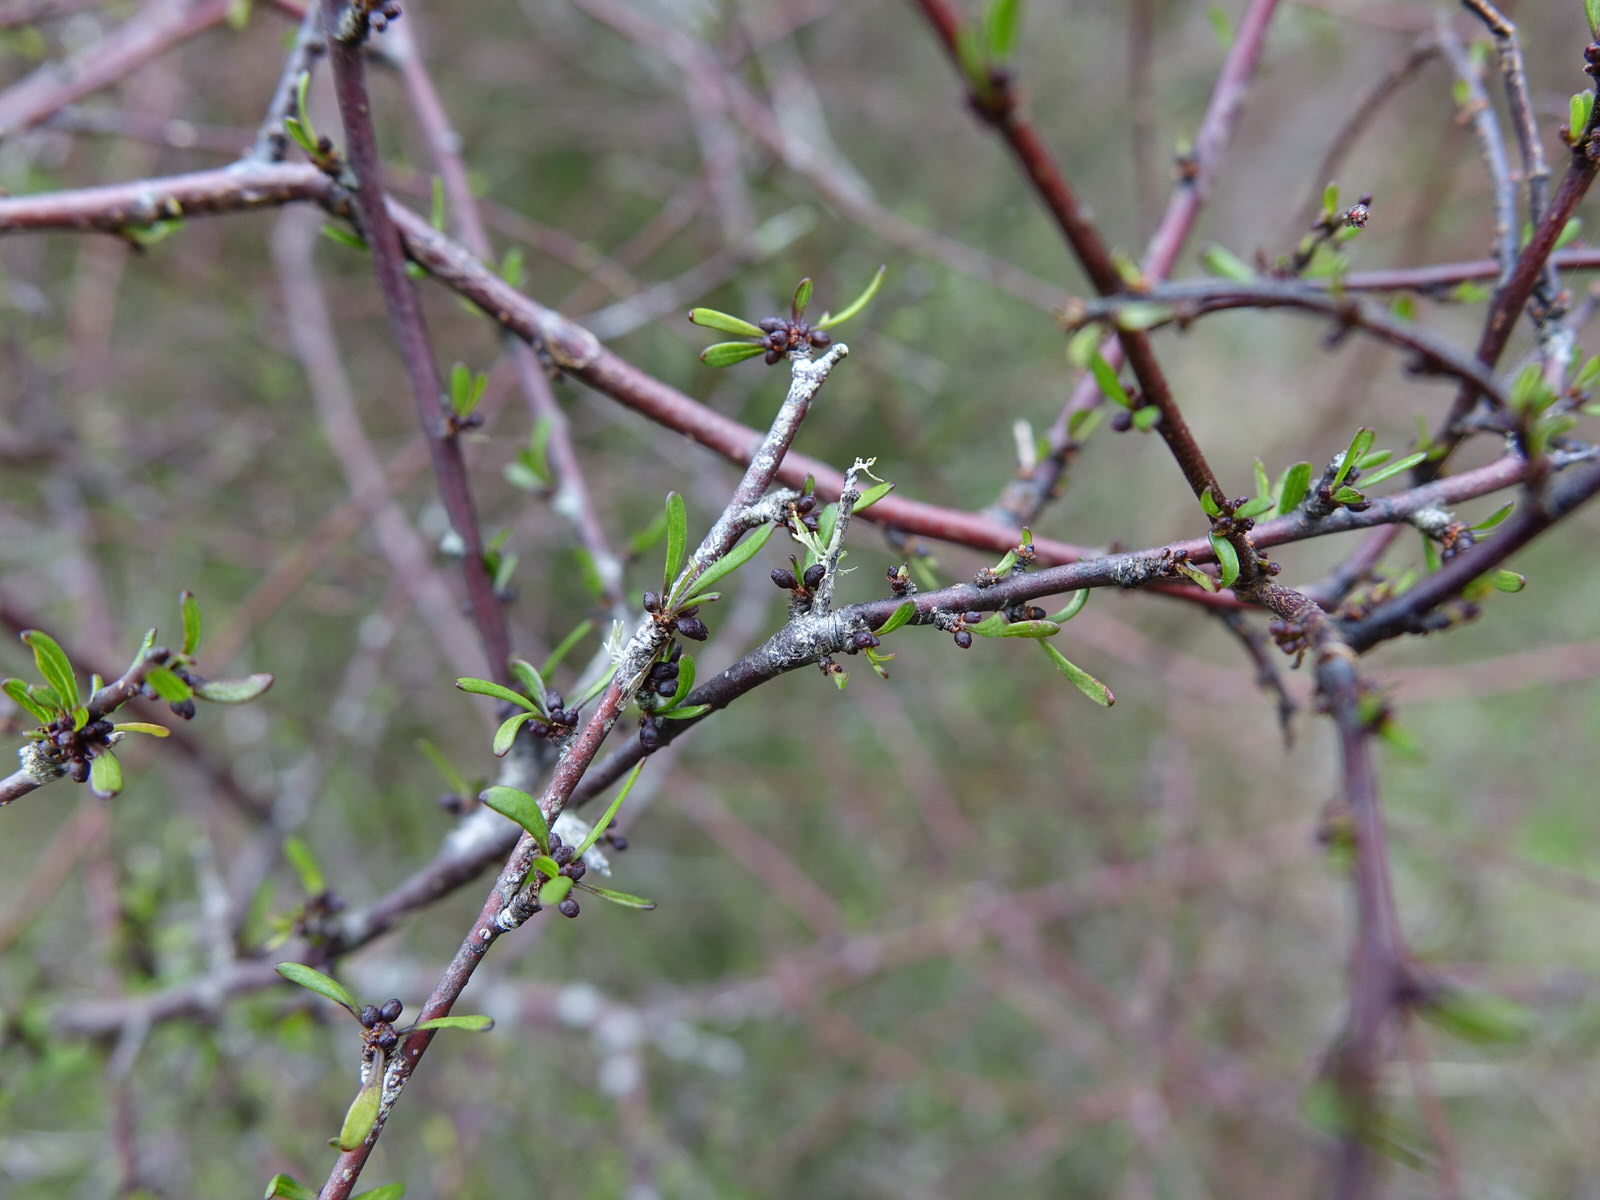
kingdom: Plantae
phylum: Tracheophyta
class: Magnoliopsida
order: Malvales
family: Malvaceae
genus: Plagianthus
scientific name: Plagianthus divaricatus
